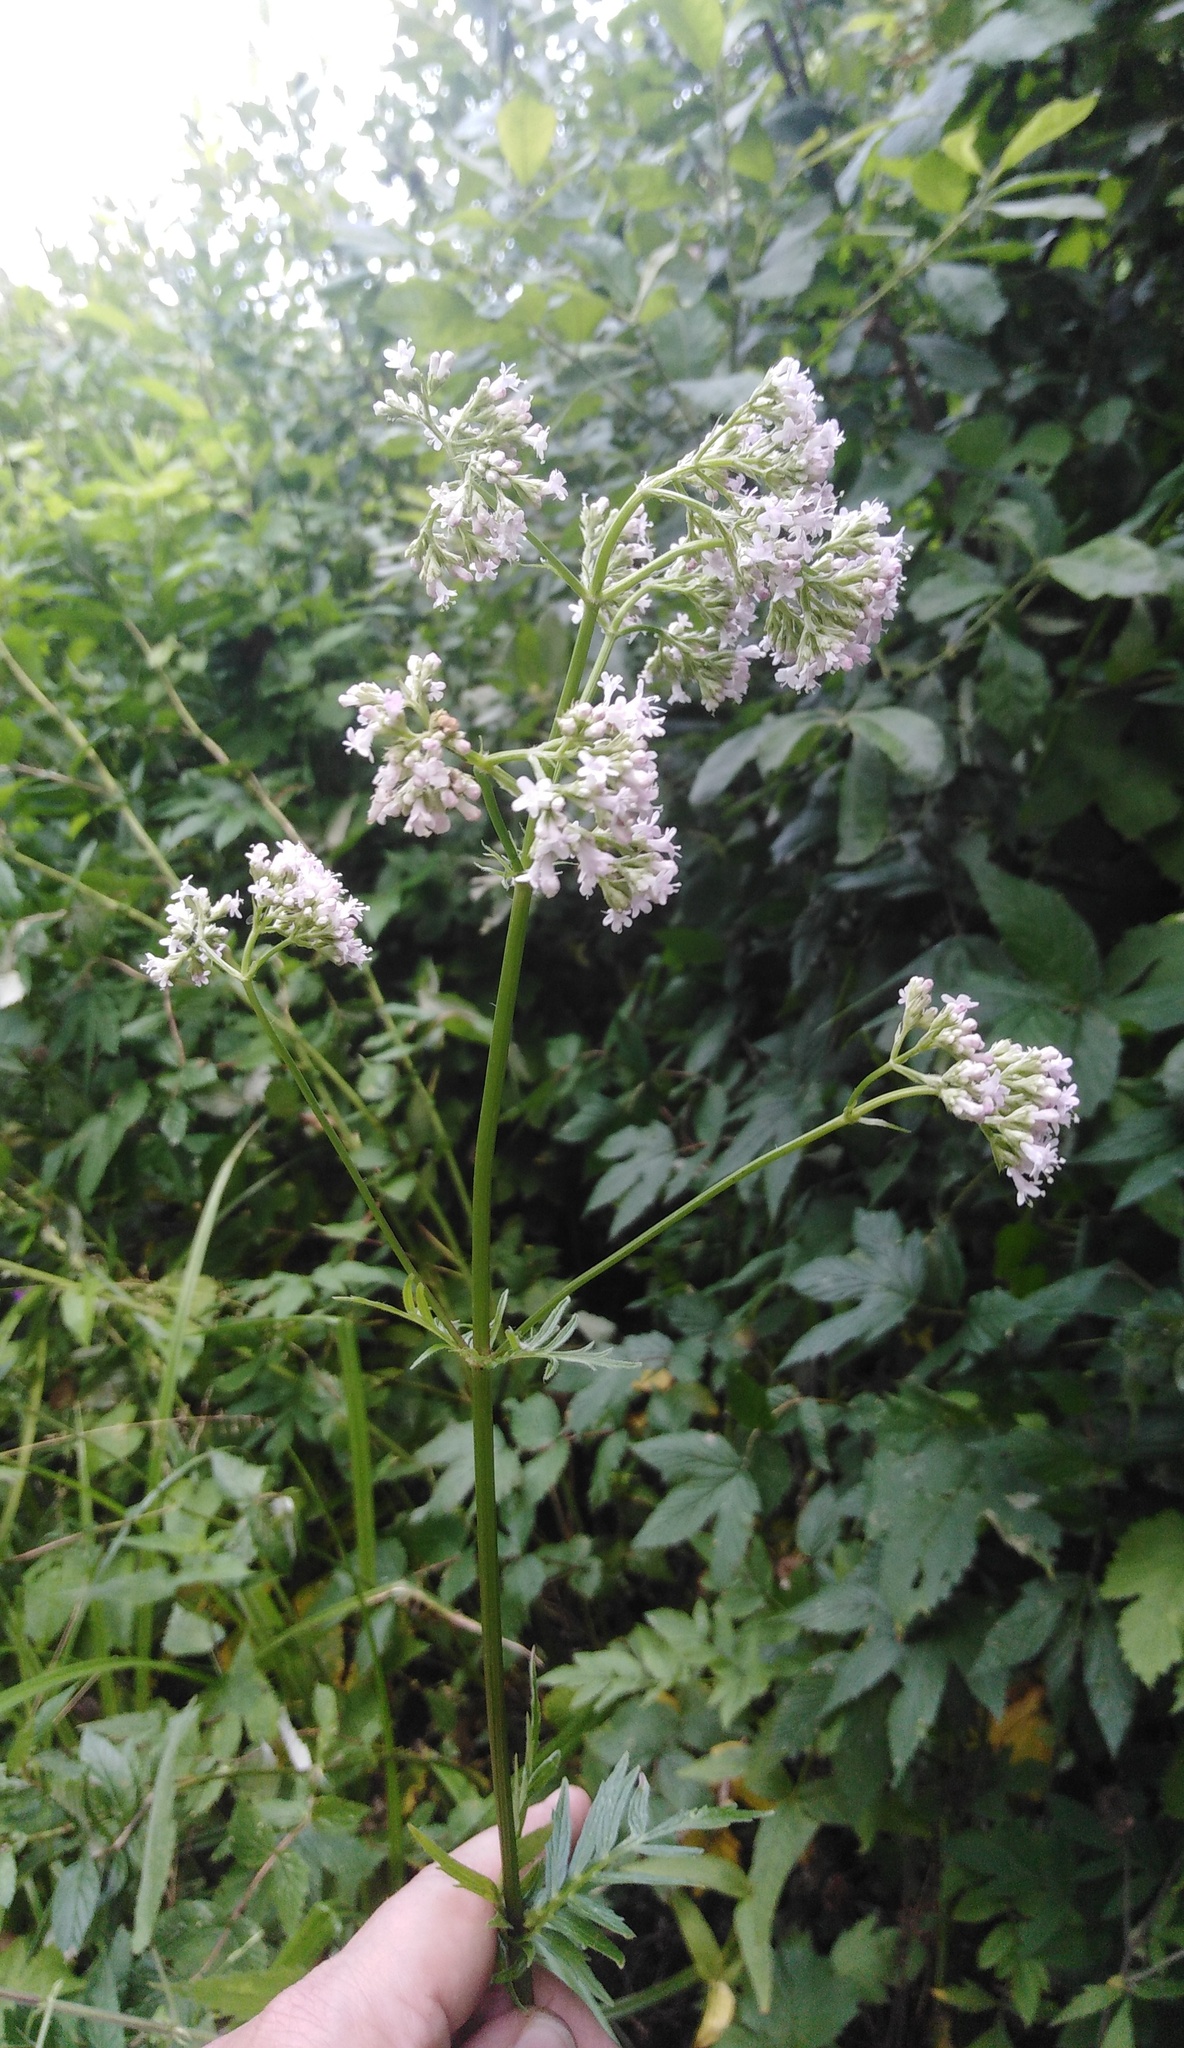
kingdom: Plantae
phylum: Tracheophyta
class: Magnoliopsida
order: Dipsacales
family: Caprifoliaceae
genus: Valeriana
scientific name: Valeriana officinalis
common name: Common valerian
